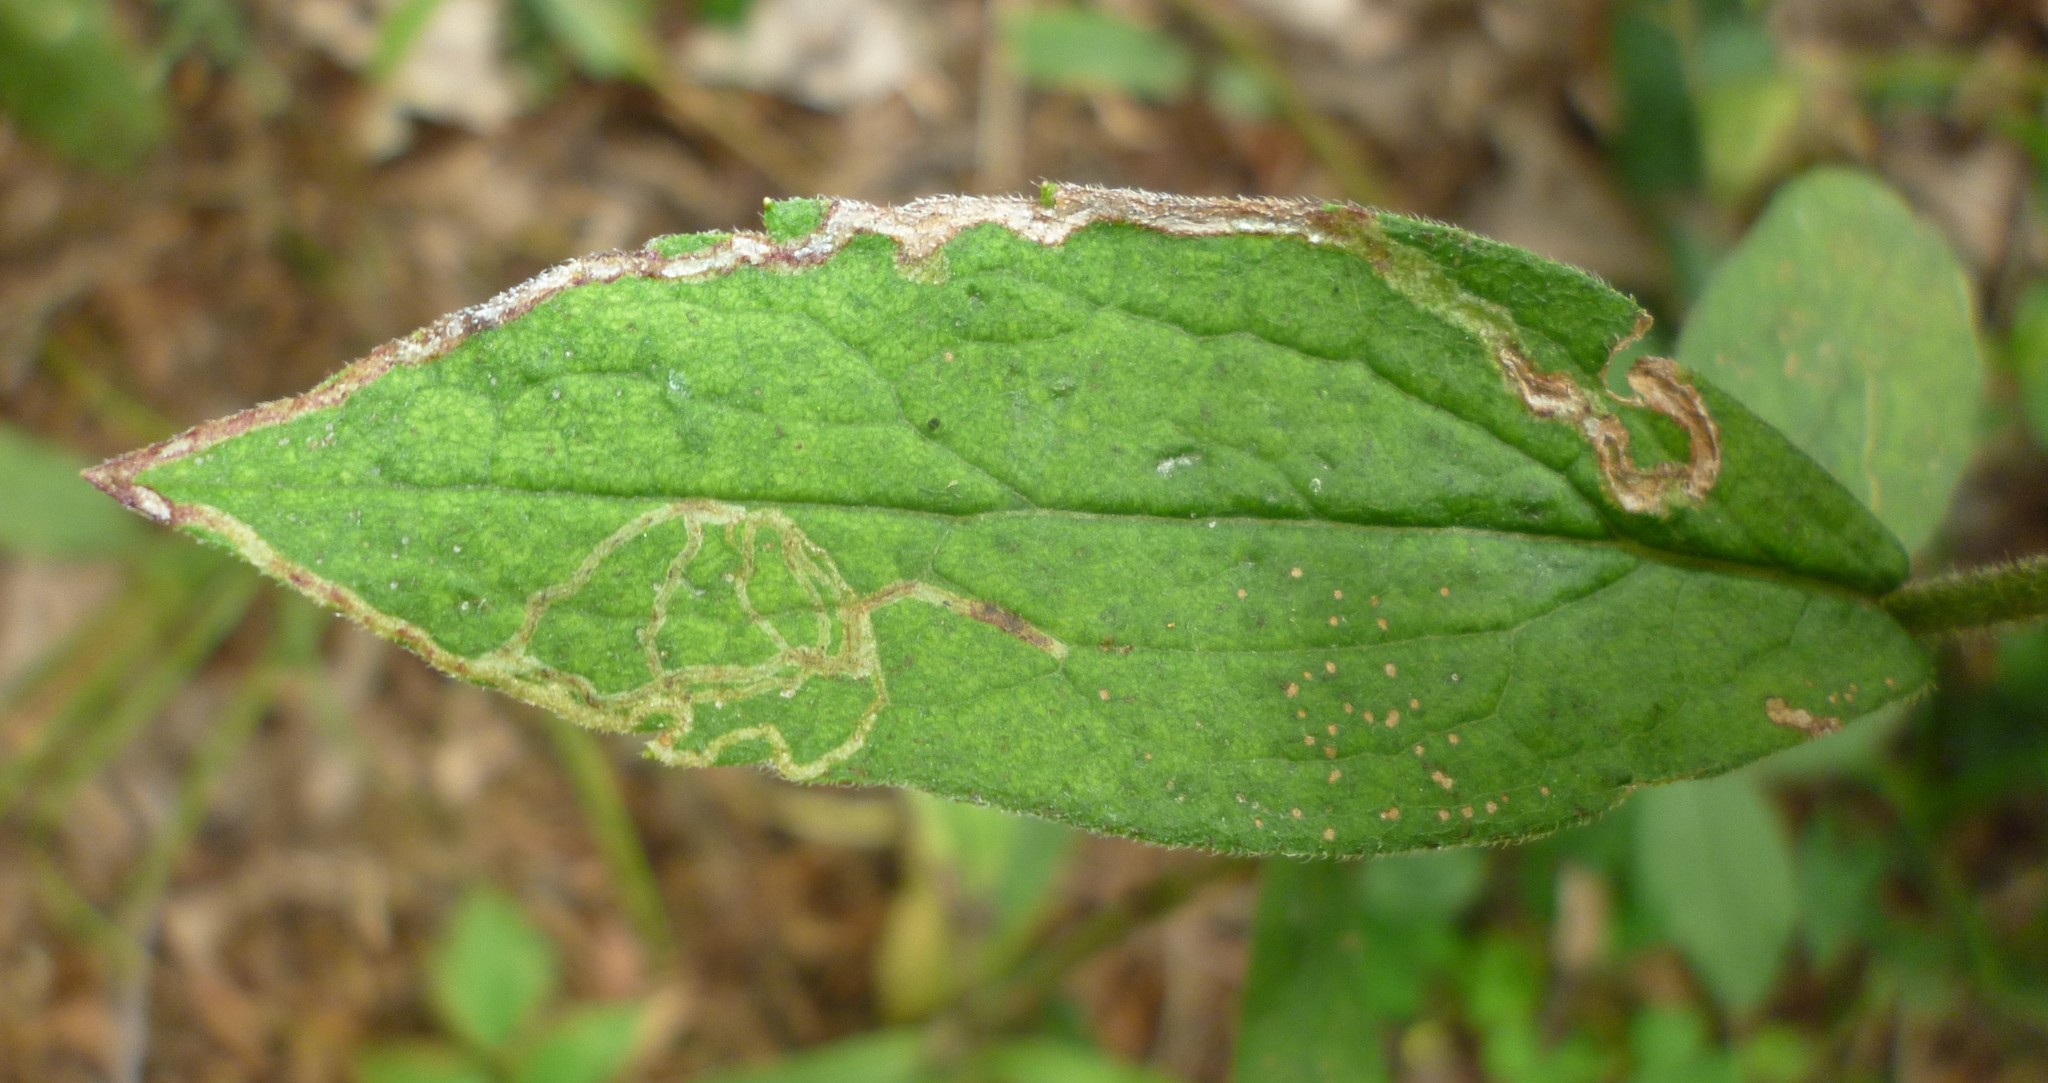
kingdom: Animalia
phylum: Arthropoda
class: Insecta
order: Diptera
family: Agromyzidae
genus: Ophiomyia
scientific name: Ophiomyia maura
